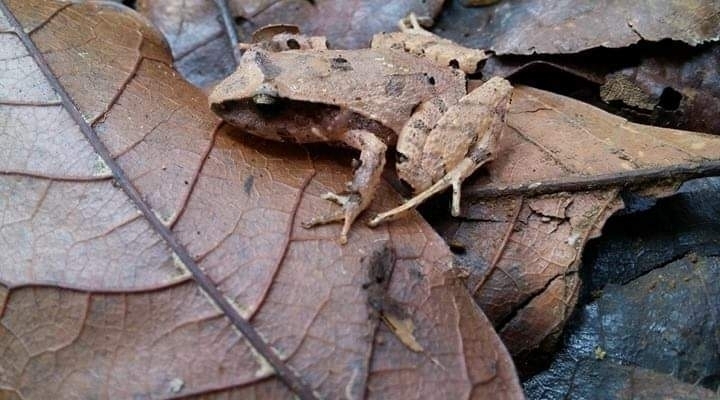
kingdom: Animalia
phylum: Chordata
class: Amphibia
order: Anura
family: Craugastoridae
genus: Craugastor
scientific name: Craugastor podiciferus
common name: Cerro utyum robber frog
